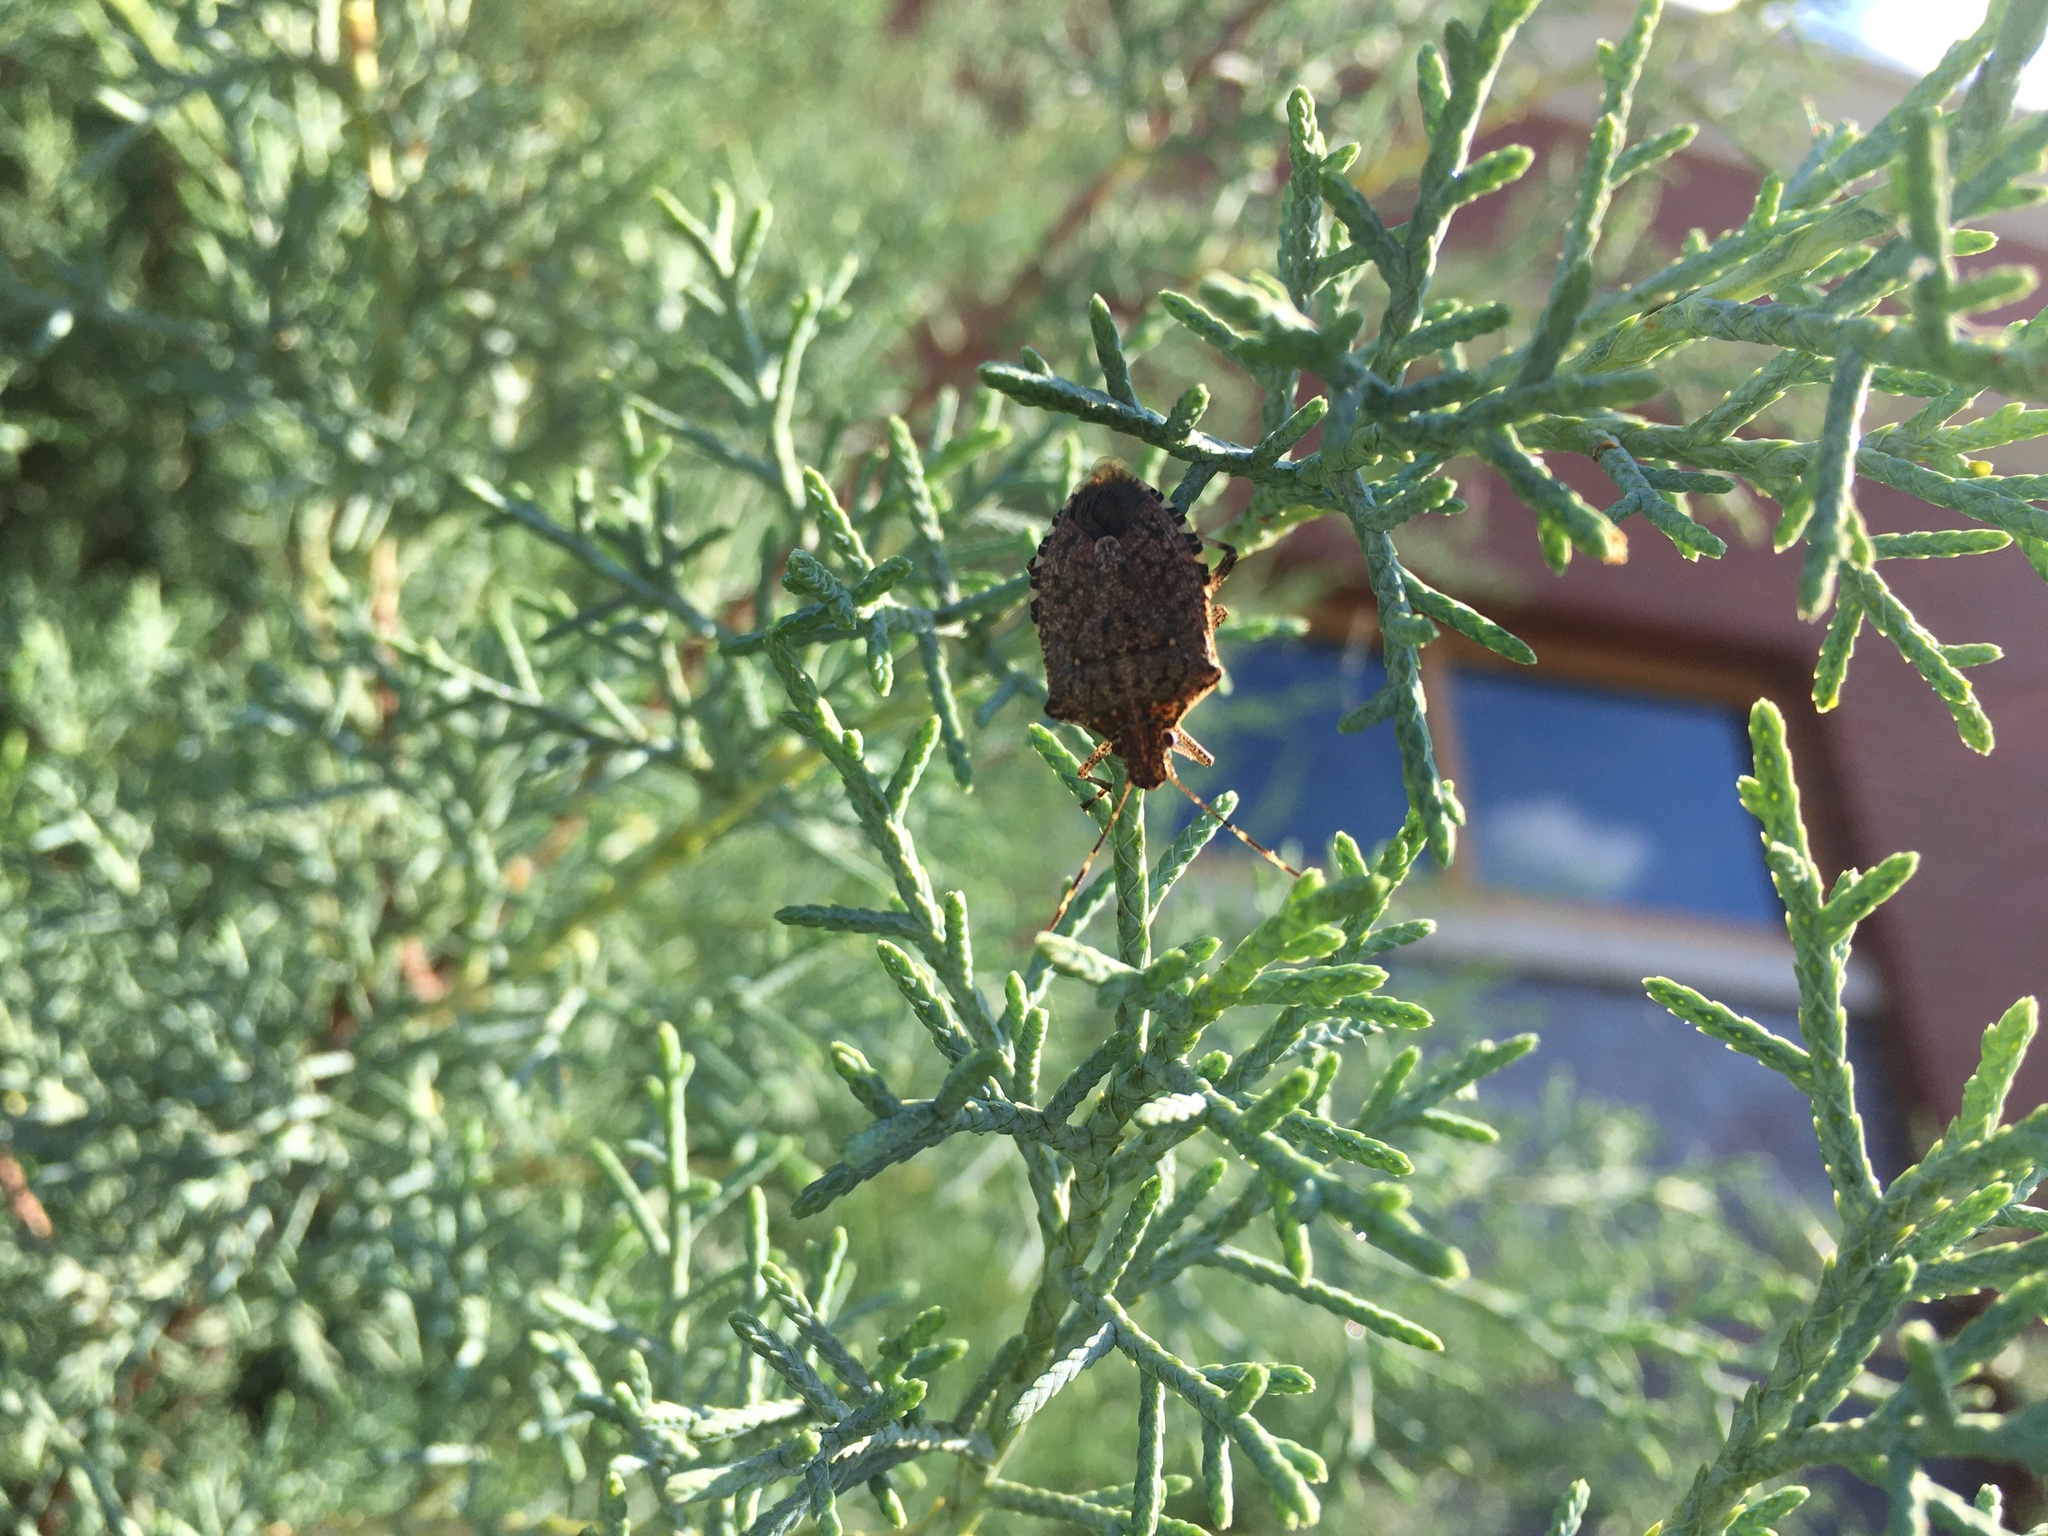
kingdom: Animalia
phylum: Arthropoda
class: Insecta
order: Hemiptera
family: Pentatomidae
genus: Halyomorpha
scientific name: Halyomorpha halys
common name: Brown marmorated stink bug
